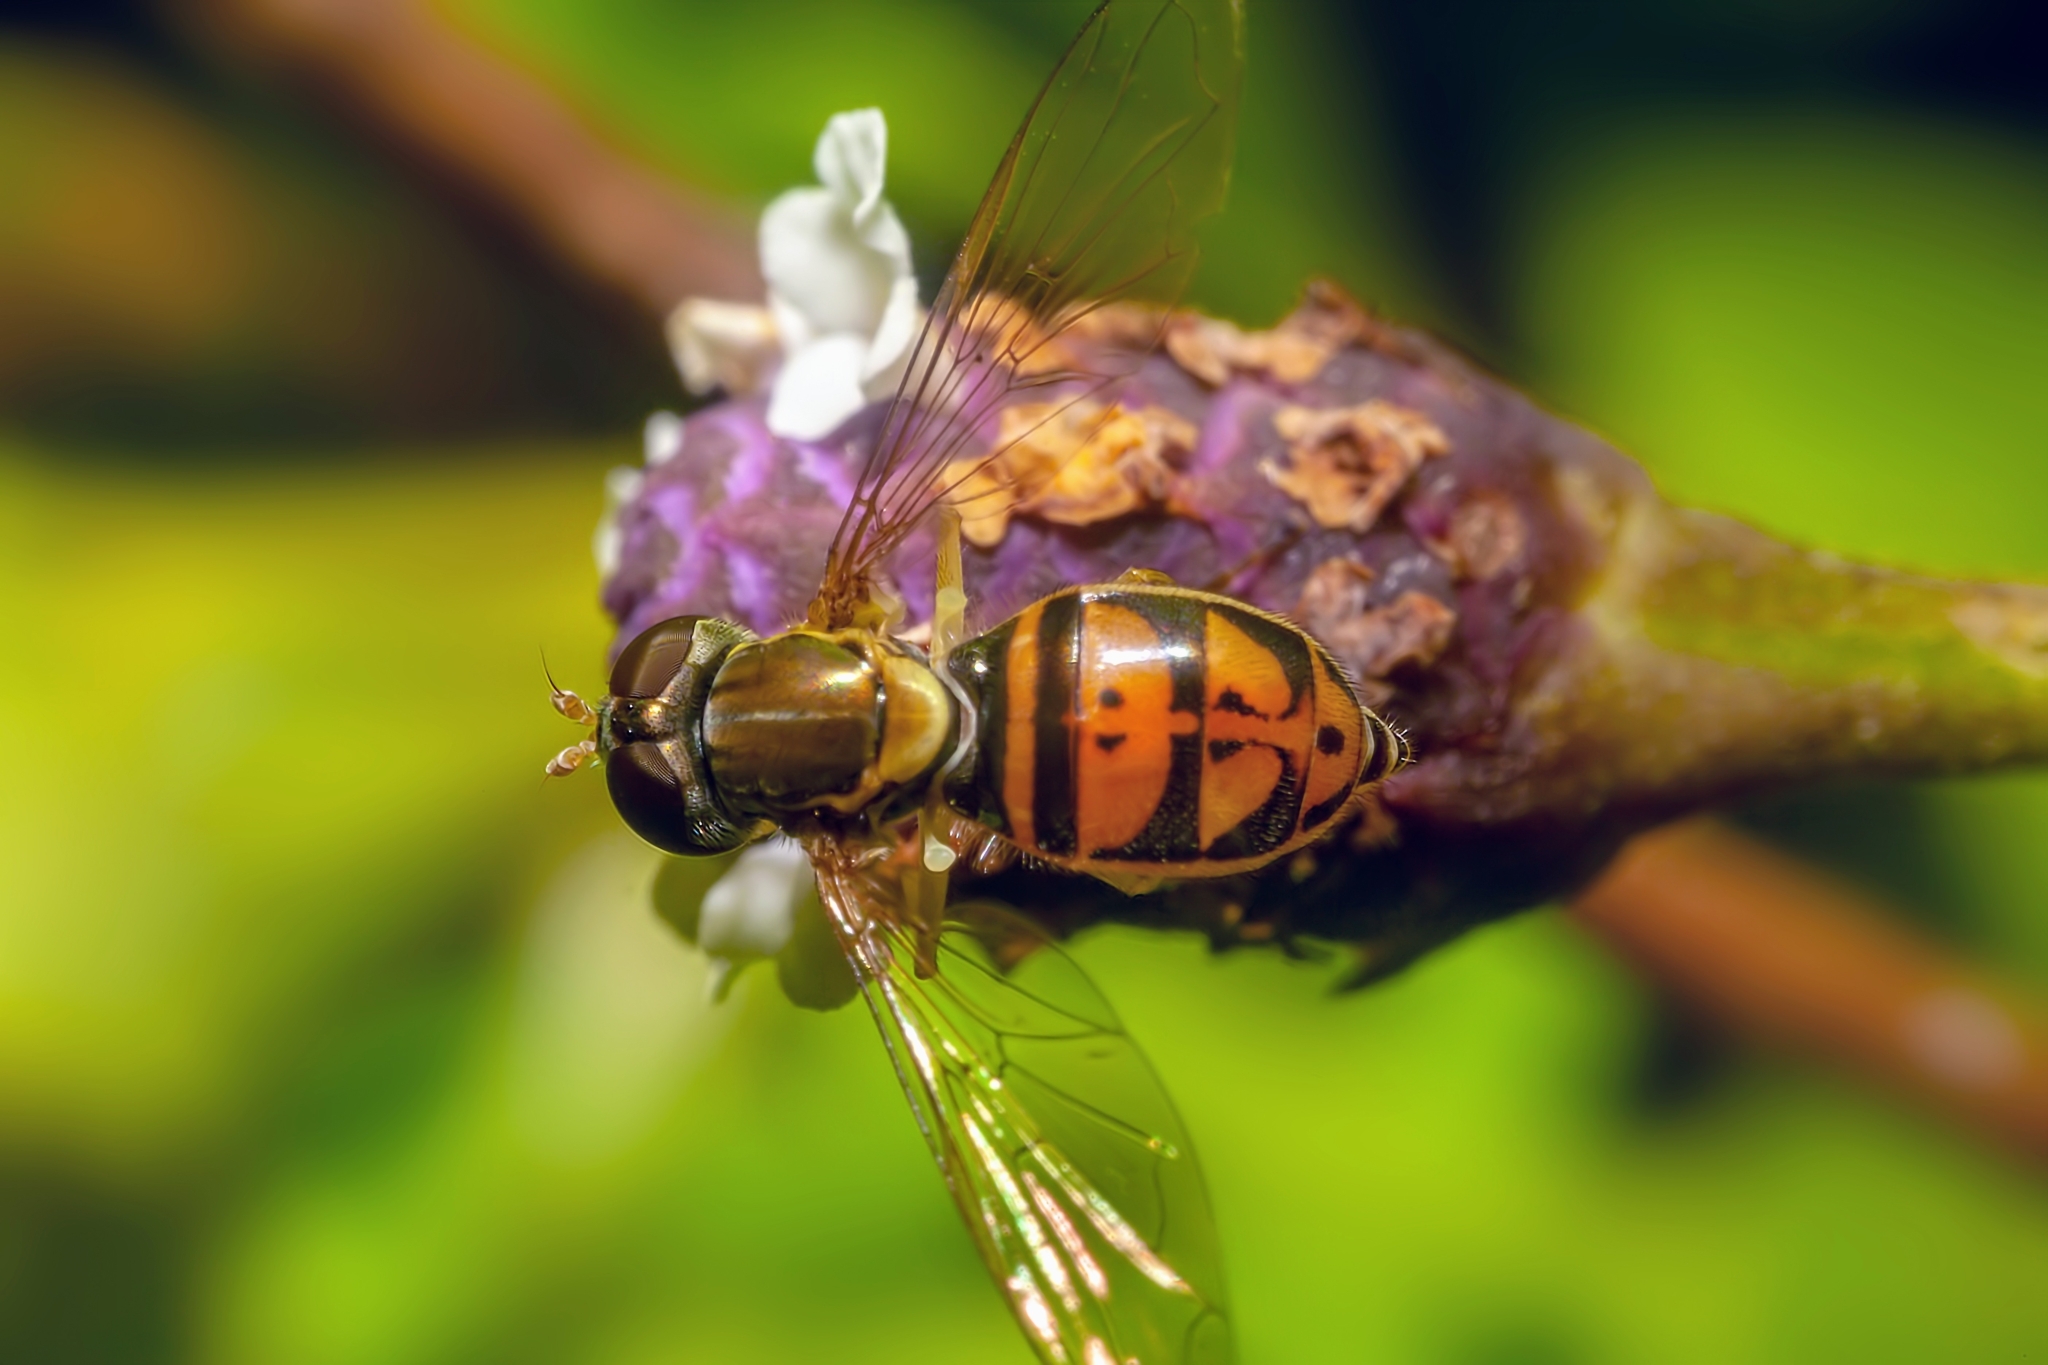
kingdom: Animalia
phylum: Arthropoda
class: Insecta
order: Diptera
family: Syrphidae
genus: Toxomerus
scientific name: Toxomerus marginatus
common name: Syrphid fly
